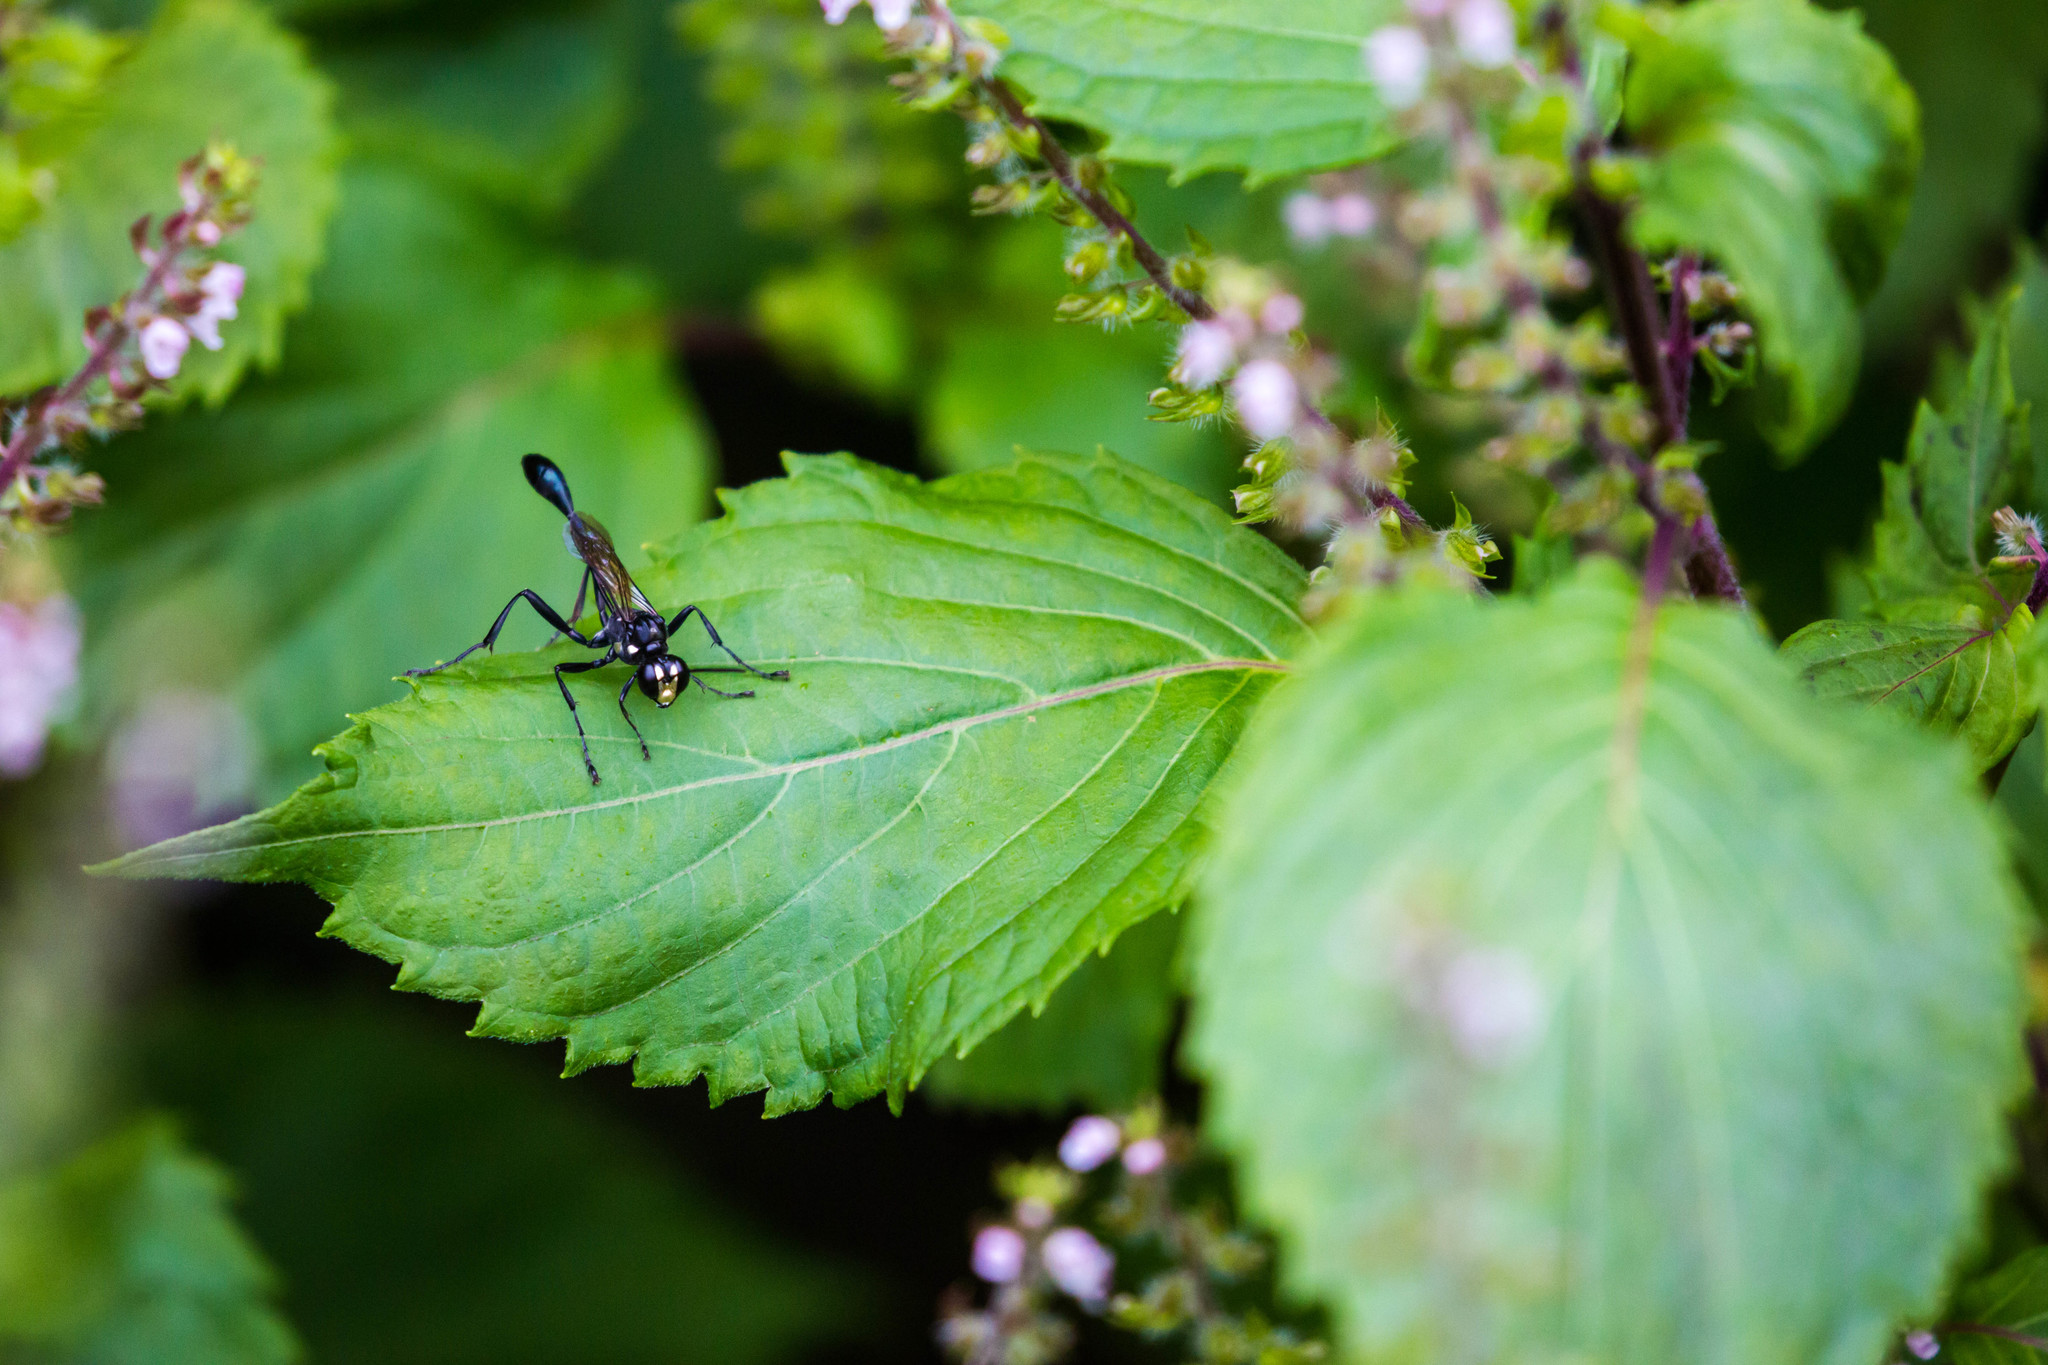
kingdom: Animalia
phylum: Arthropoda
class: Insecta
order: Hymenoptera
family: Sphecidae
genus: Eremnophila
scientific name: Eremnophila aureonotata
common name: Gold-marked thread-waisted wasp
